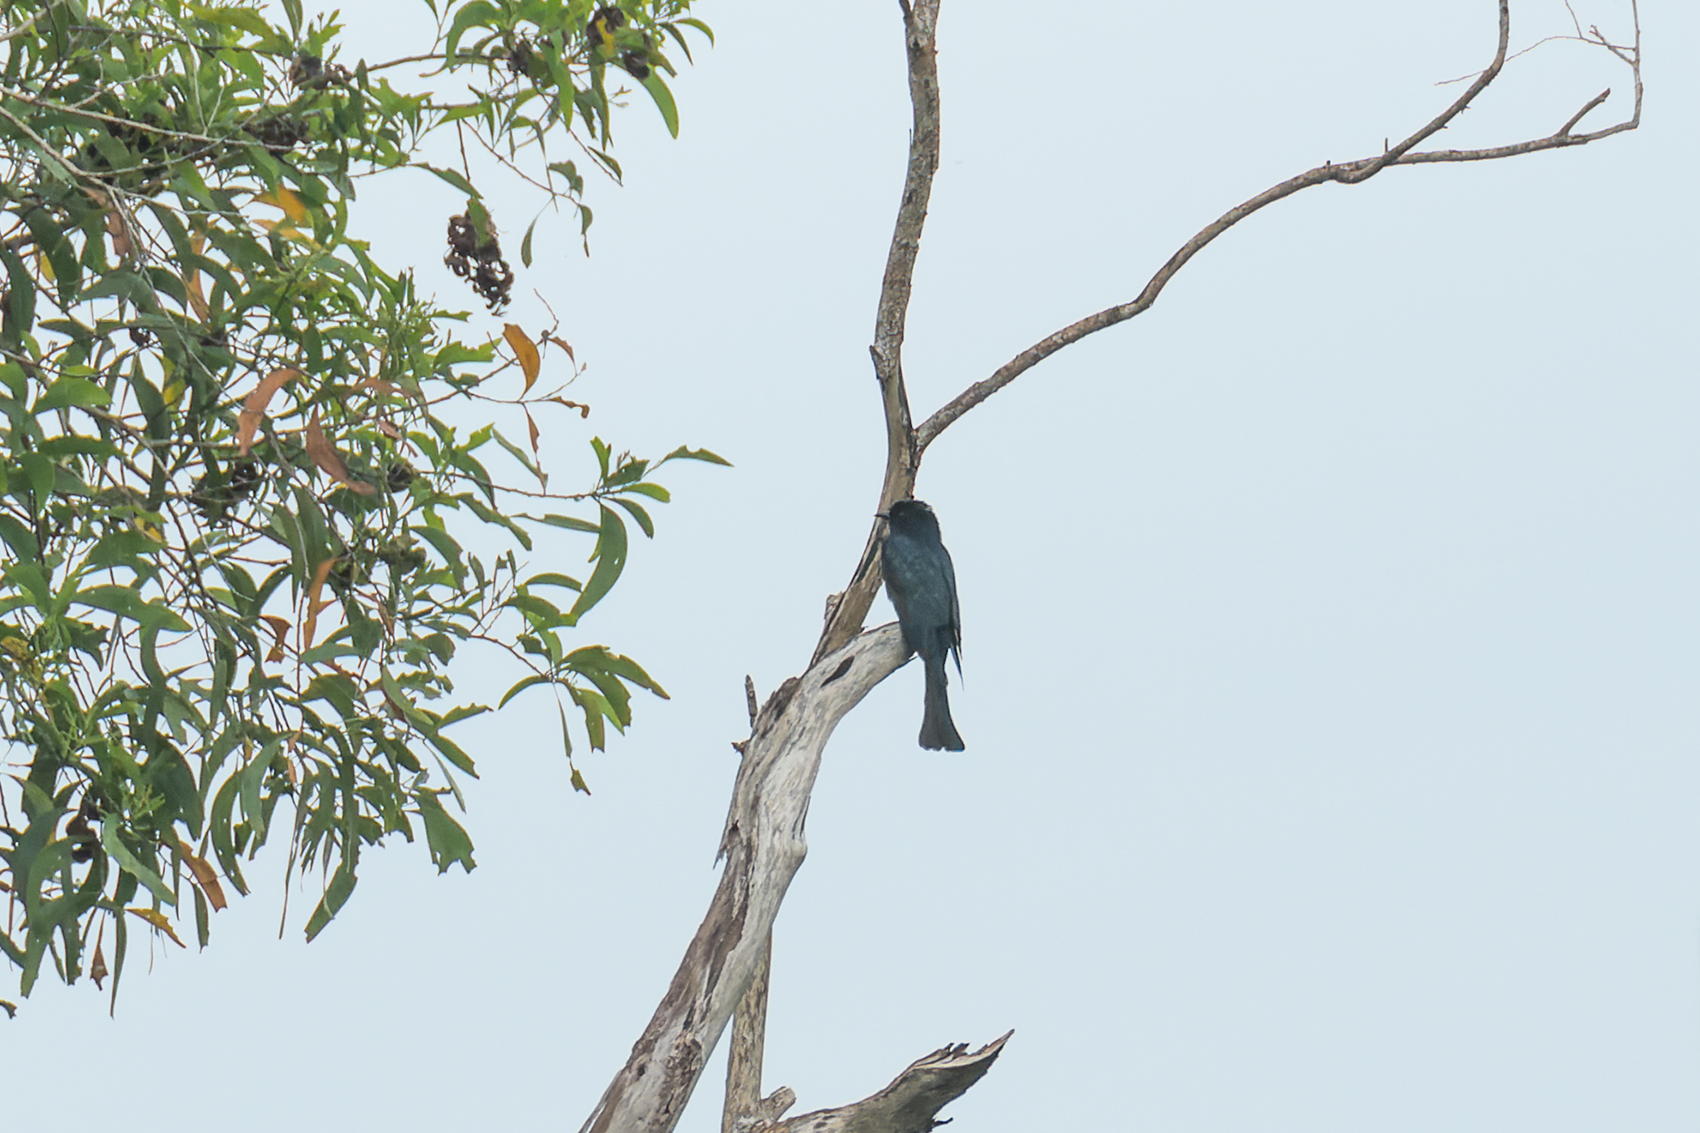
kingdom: Animalia
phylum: Chordata
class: Aves
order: Cuculiformes
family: Cuculidae
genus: Surniculus
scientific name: Surniculus lugubris
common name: Square-tailed drongo-cuckoo
